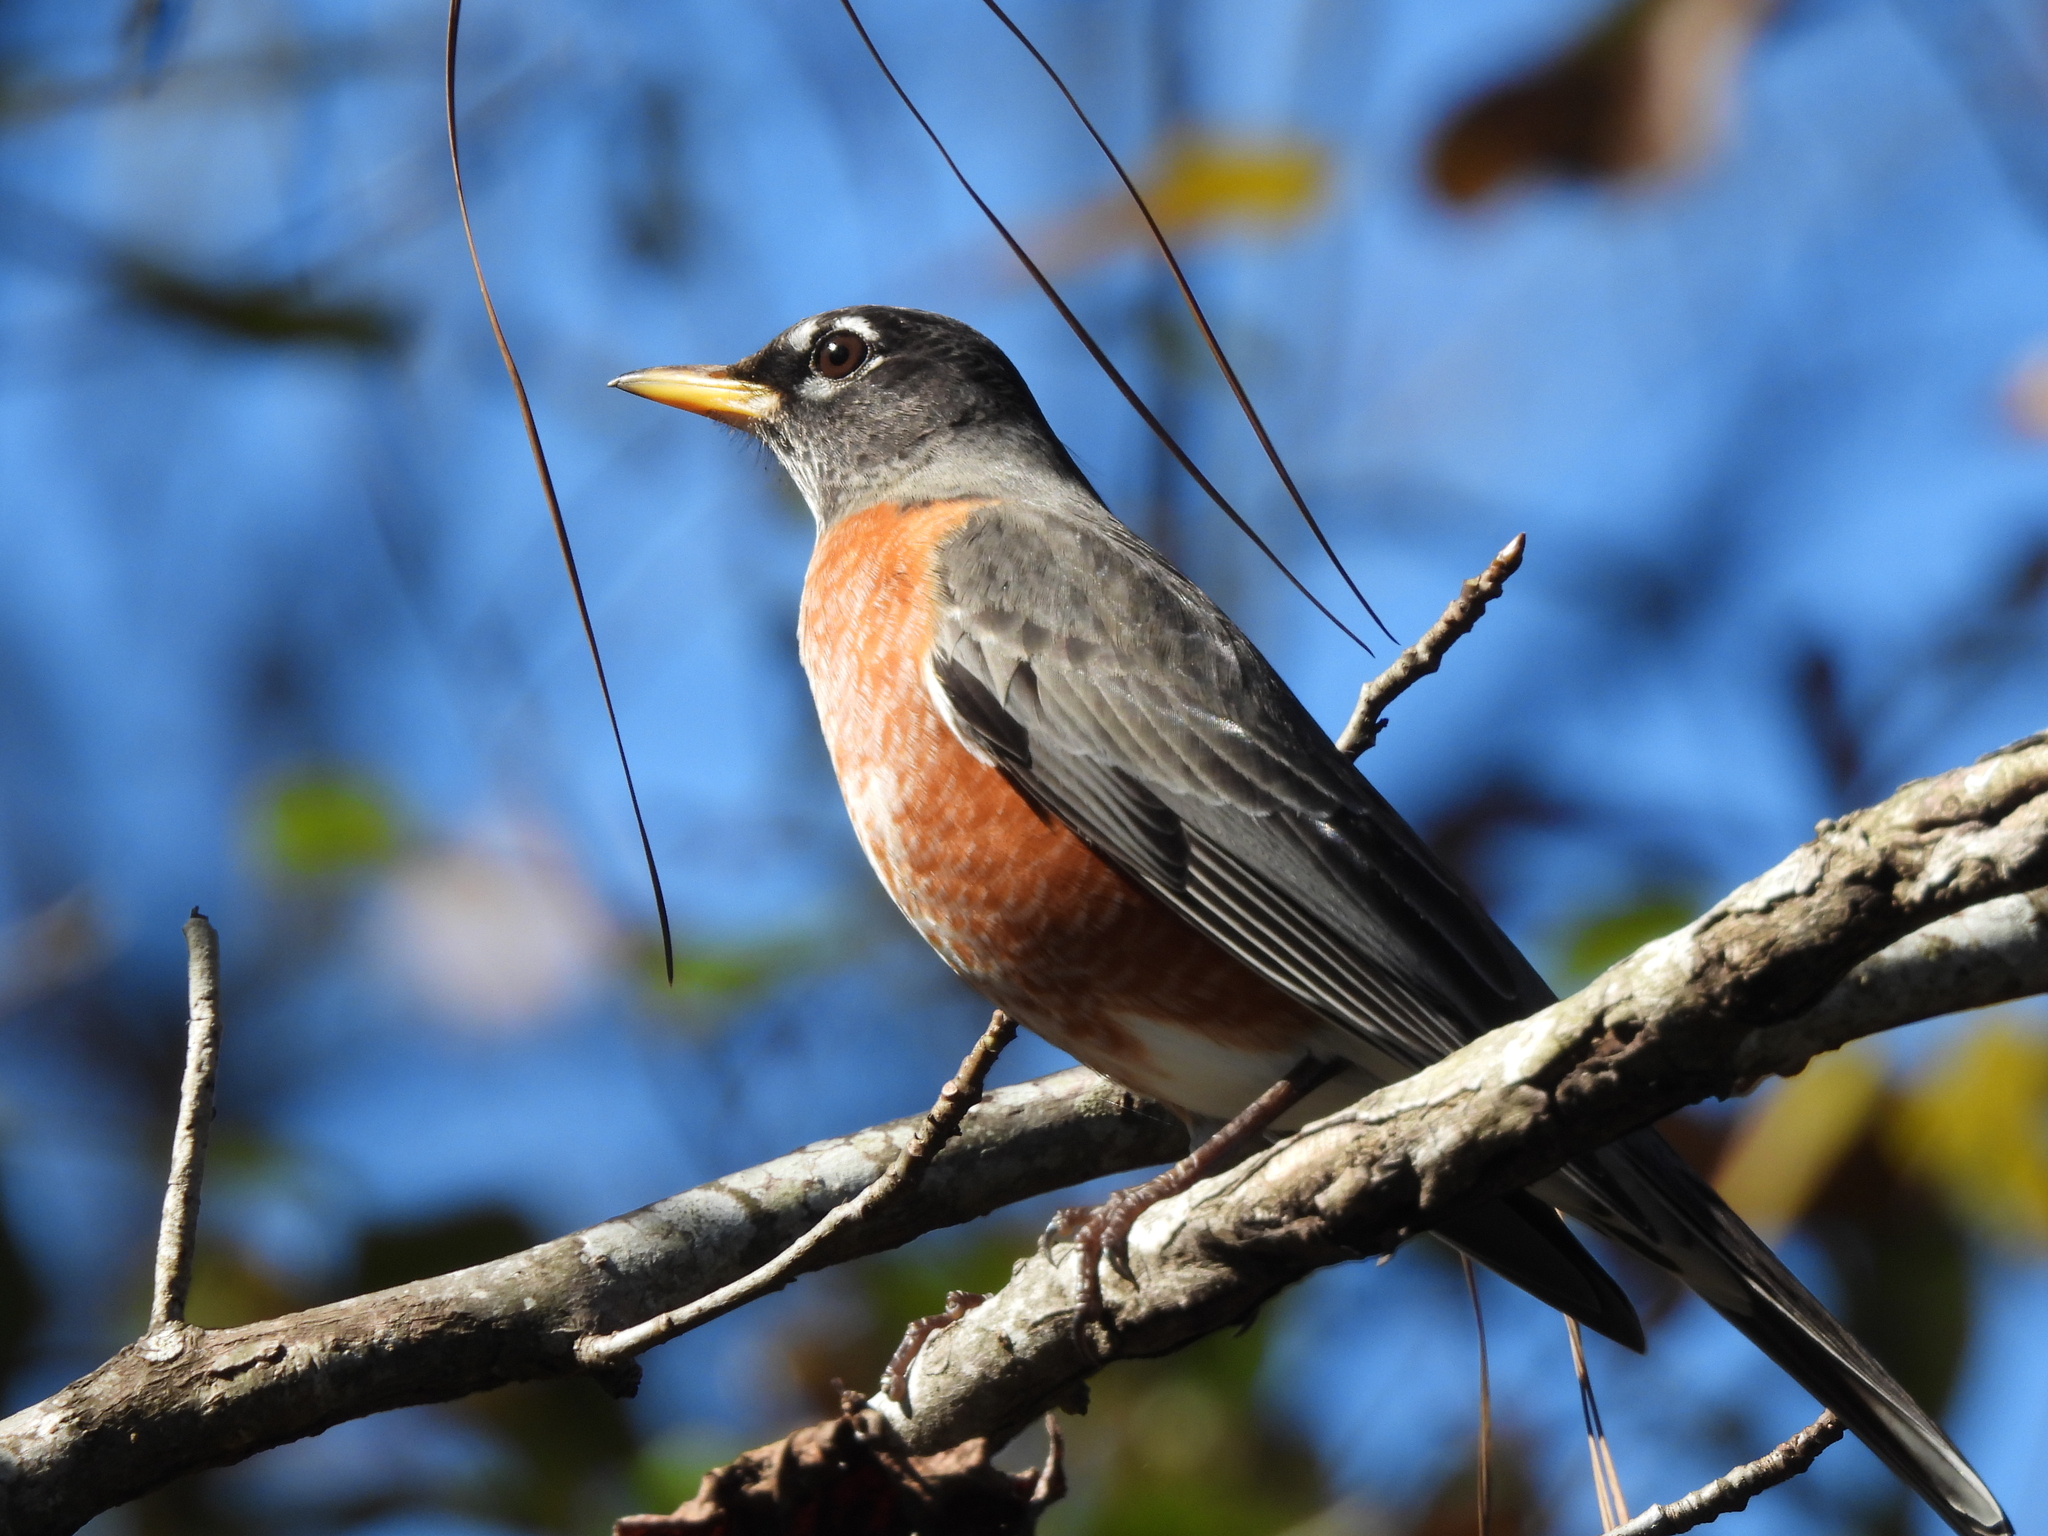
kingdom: Animalia
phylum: Chordata
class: Aves
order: Passeriformes
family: Turdidae
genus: Turdus
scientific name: Turdus migratorius
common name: American robin
